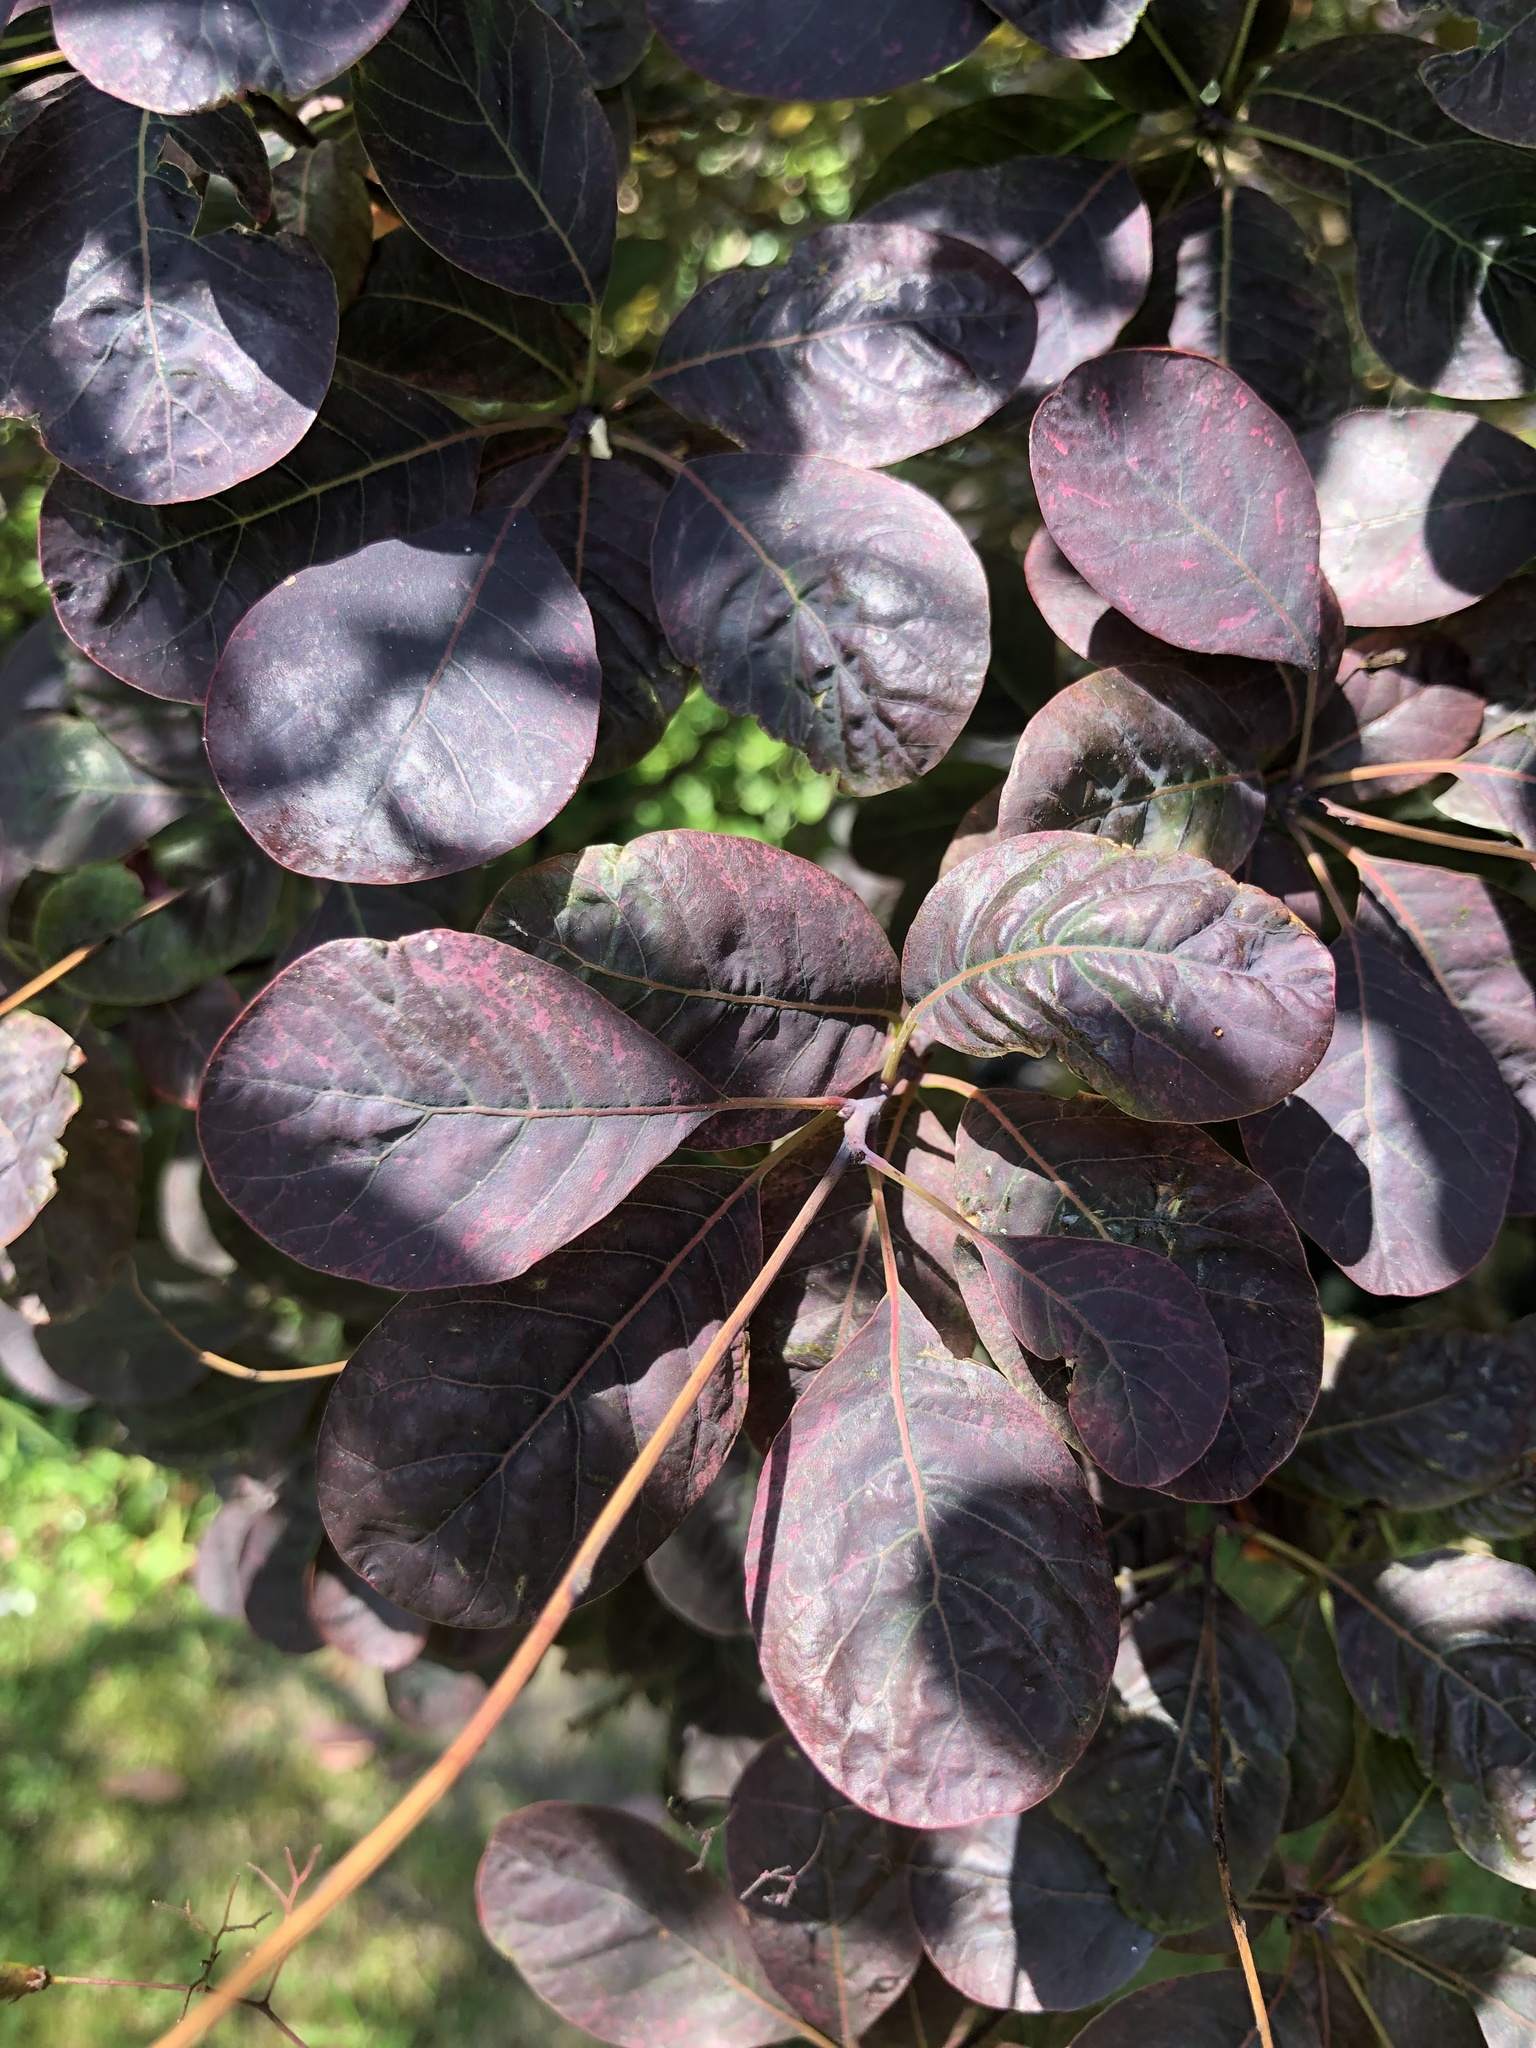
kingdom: Plantae
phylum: Tracheophyta
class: Magnoliopsida
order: Sapindales
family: Anacardiaceae
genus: Cotinus
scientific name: Cotinus coggygria
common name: Smoke-tree
